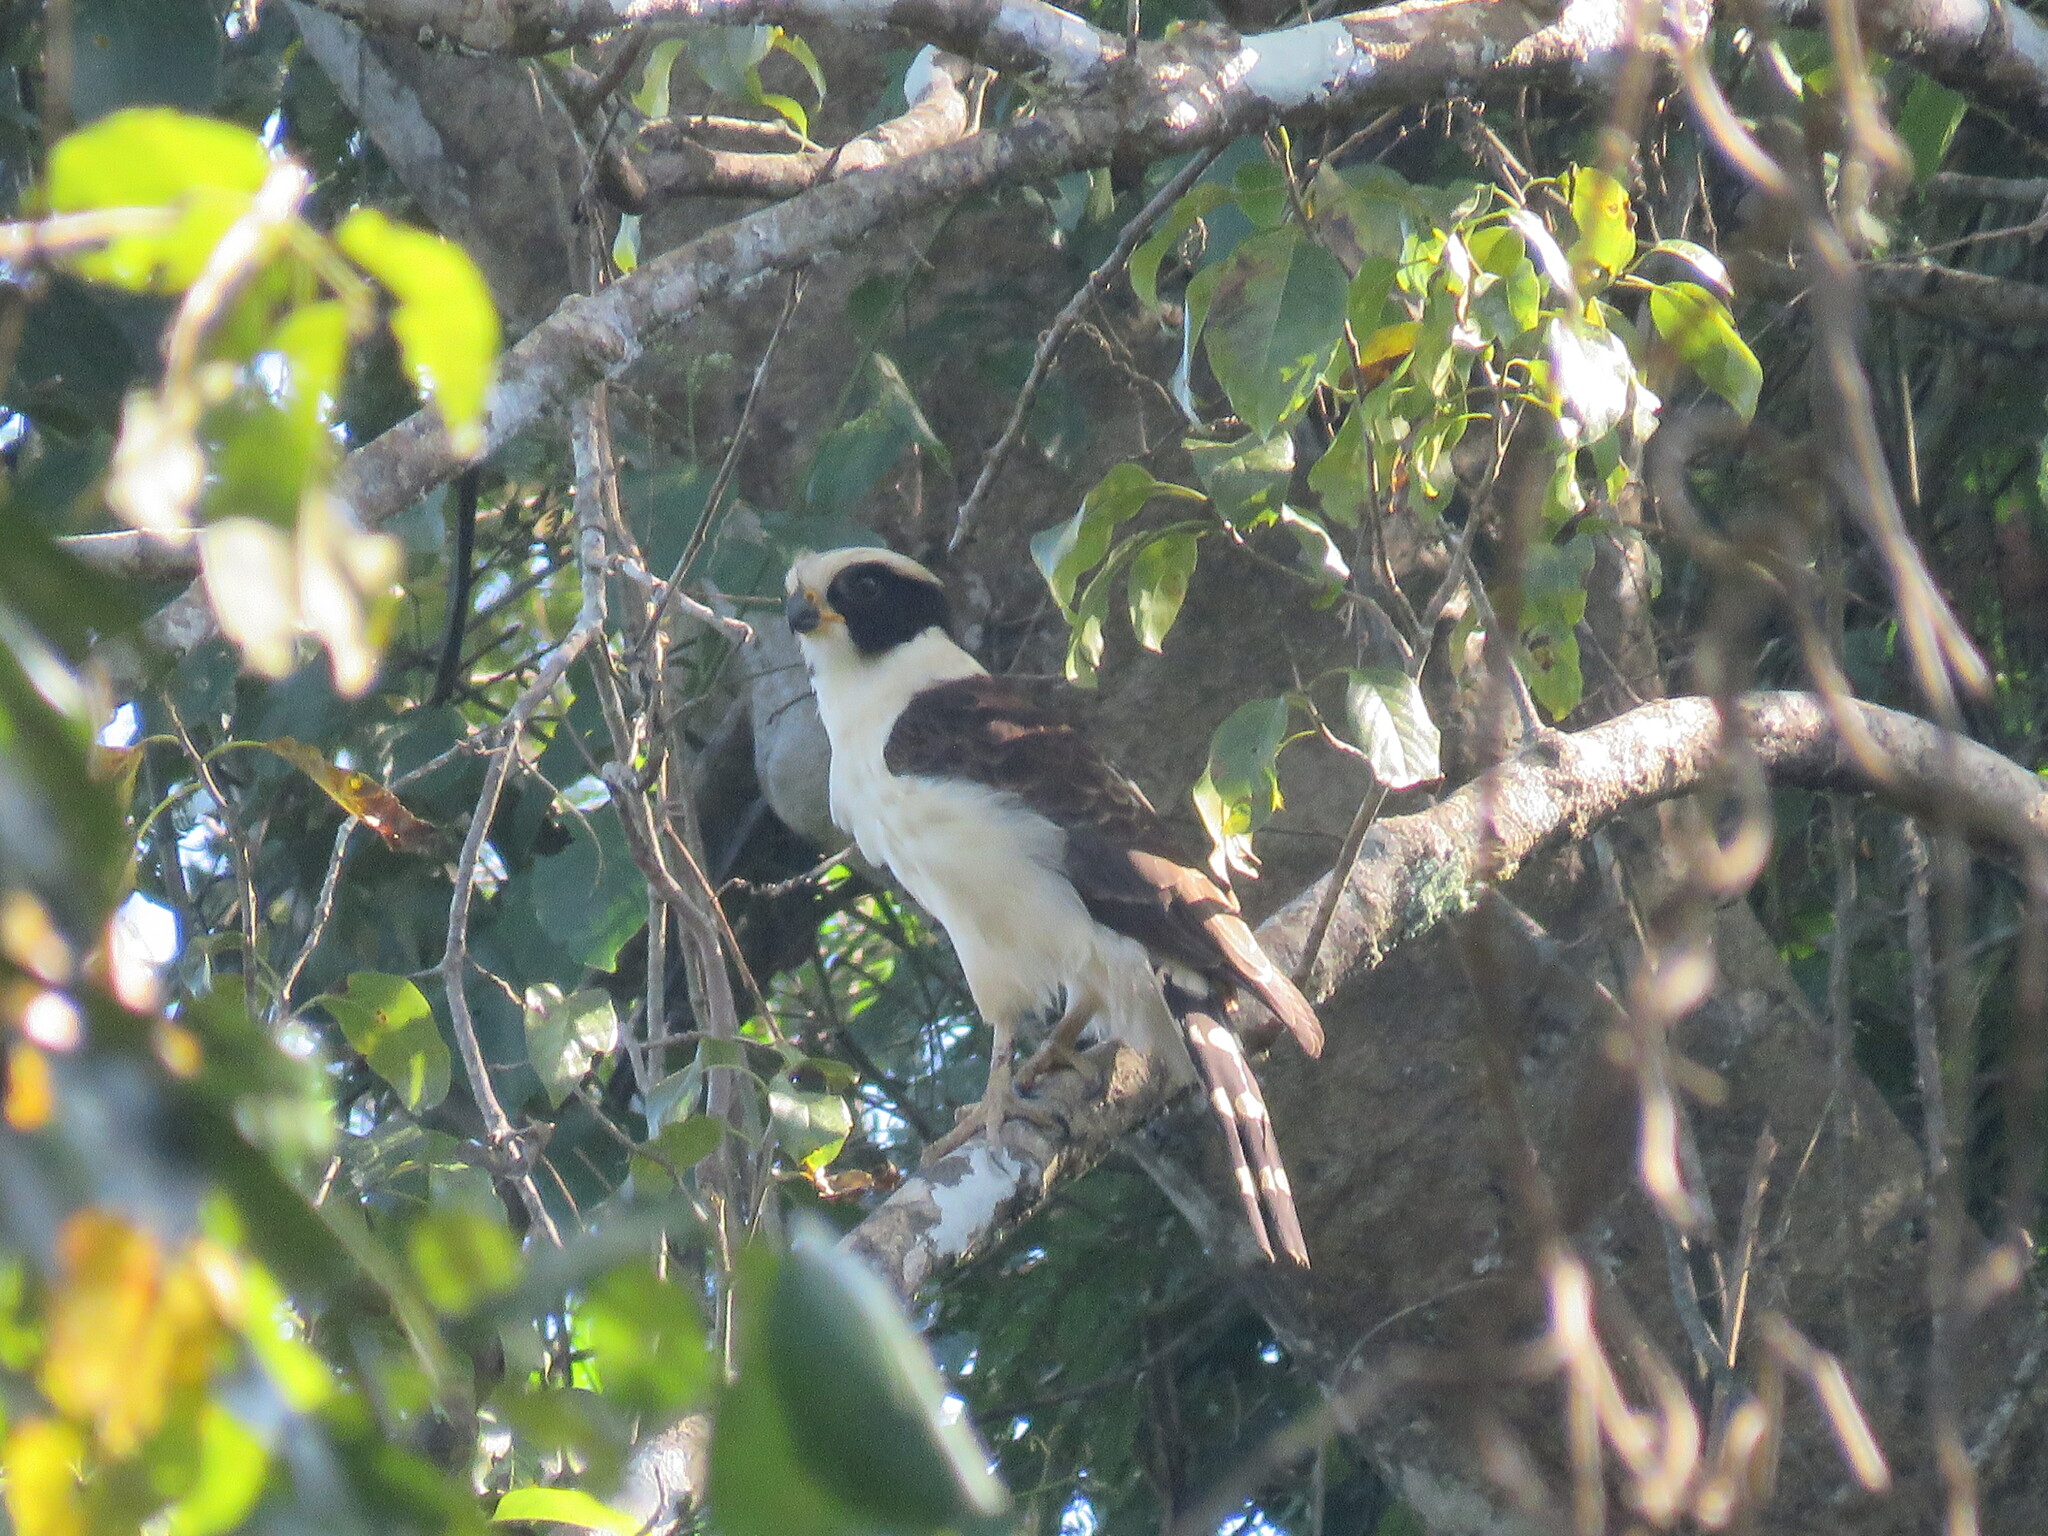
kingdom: Animalia
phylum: Chordata
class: Aves
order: Falconiformes
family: Falconidae
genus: Herpetotheres
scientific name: Herpetotheres cachinnans
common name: Laughing falcon
